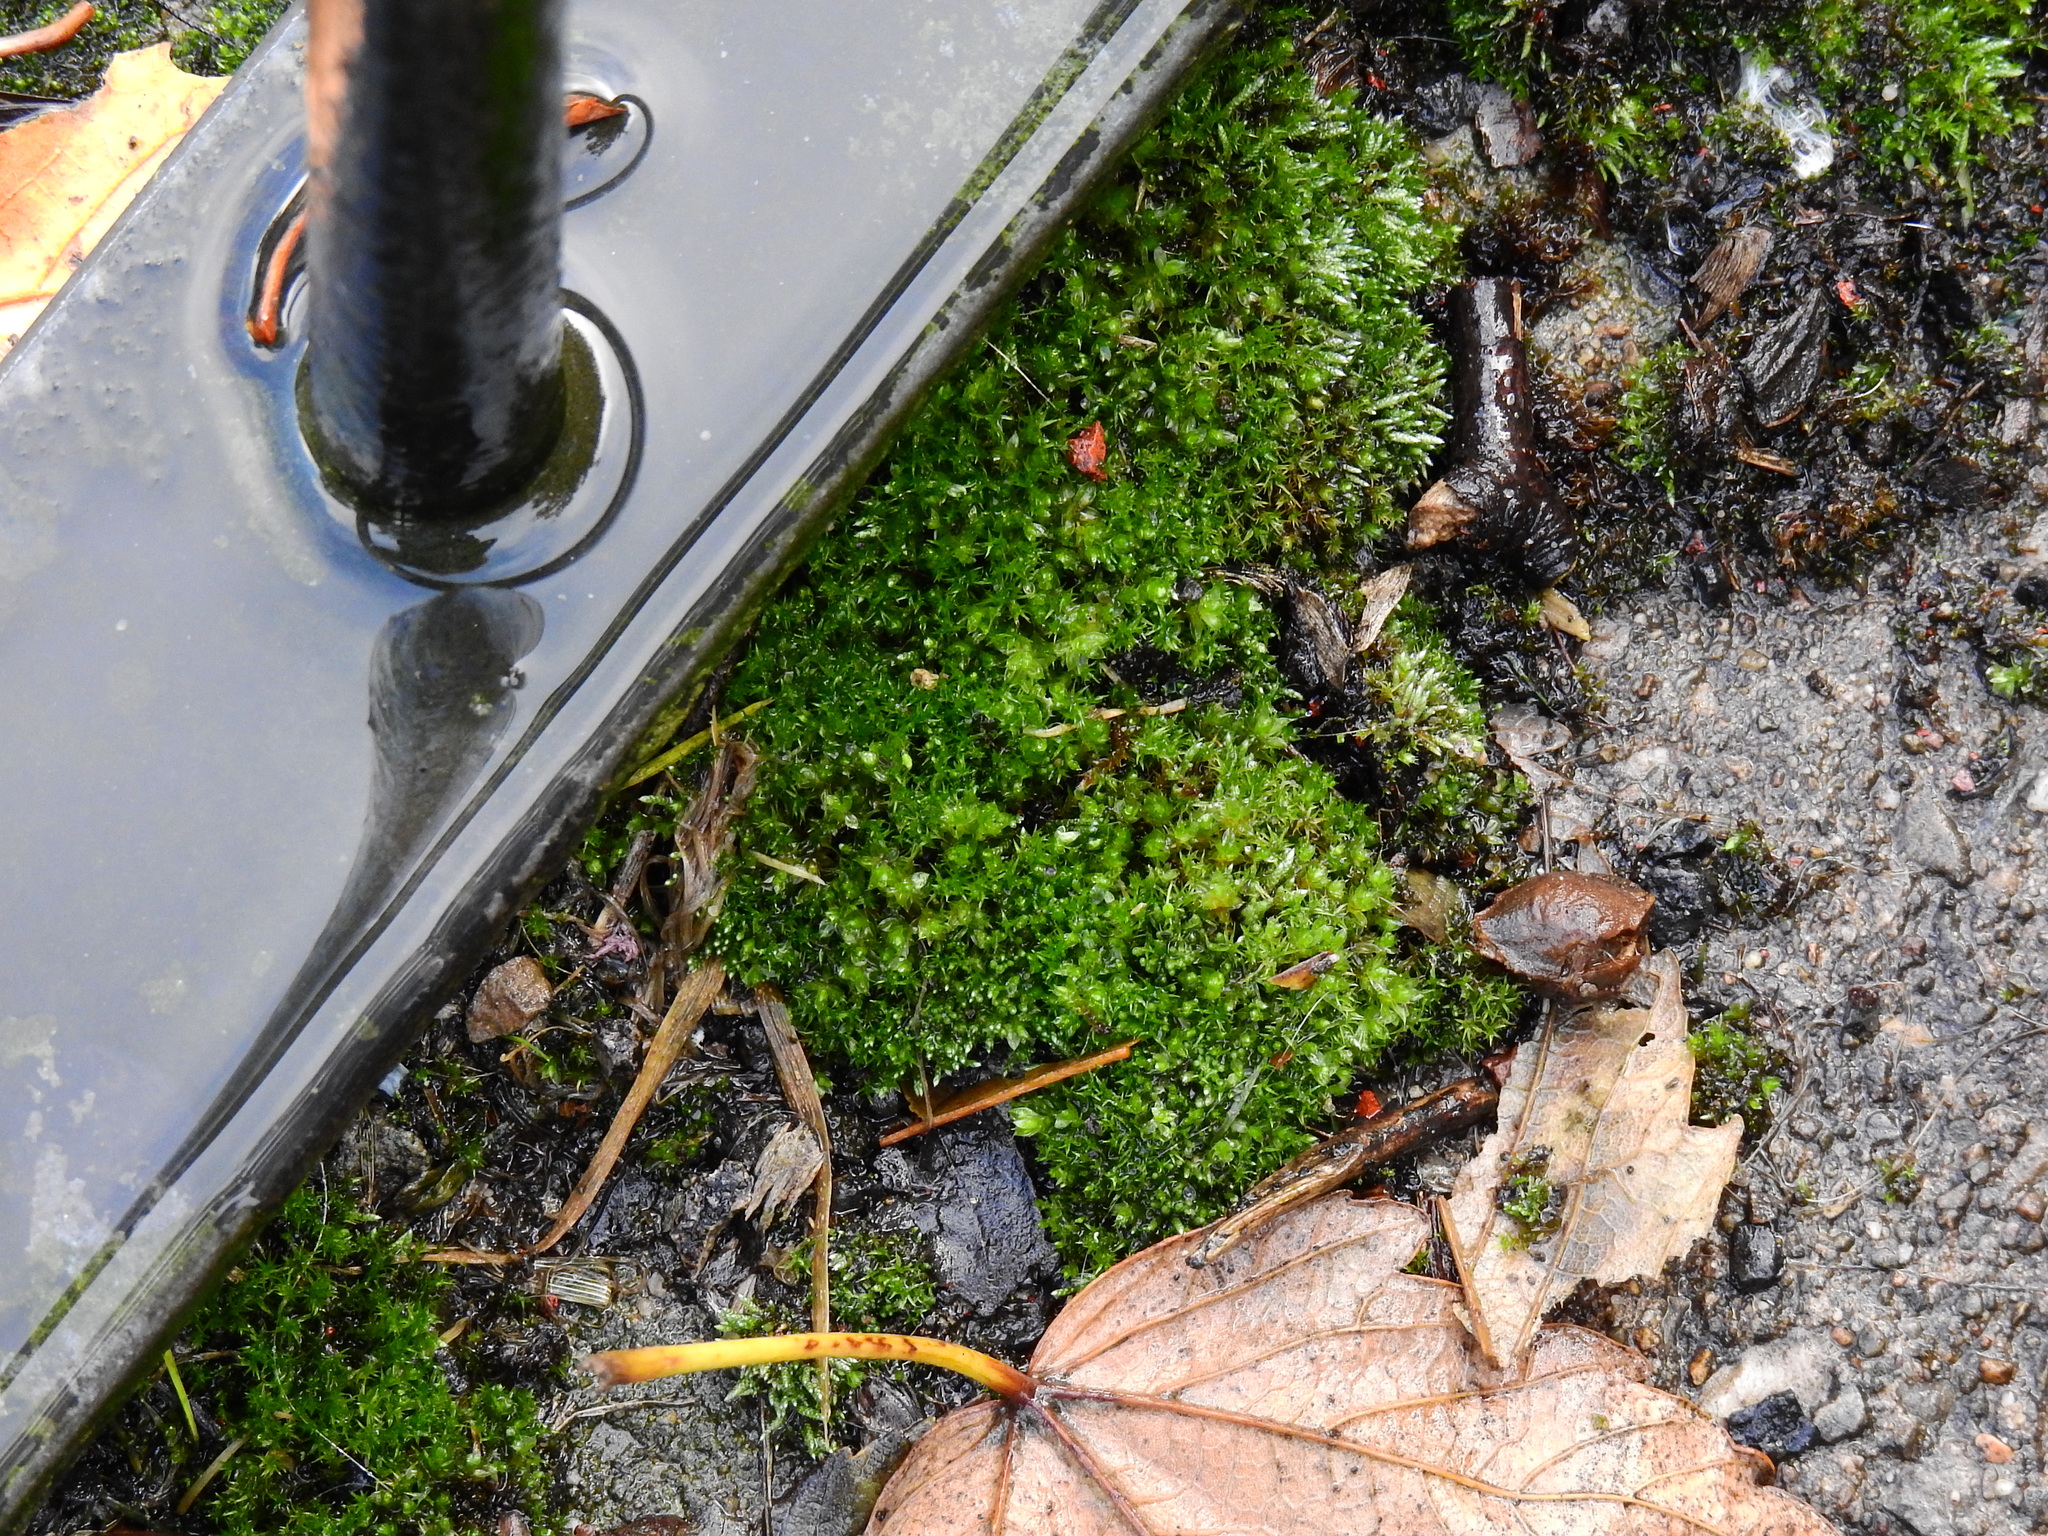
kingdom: Plantae
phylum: Bryophyta
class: Bryopsida
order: Pottiales
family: Pottiaceae
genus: Syntrichia
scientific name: Syntrichia papillosa
